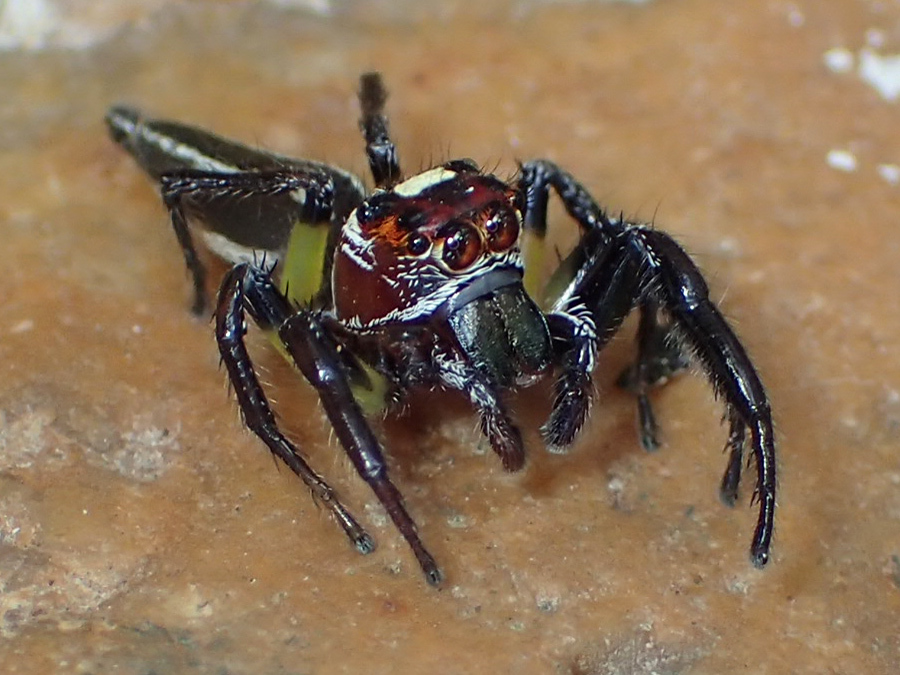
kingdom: Animalia
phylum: Arthropoda
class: Arachnida
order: Araneae
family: Salticidae
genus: Colonus
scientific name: Colonus sylvanus
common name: Jumping spiders
